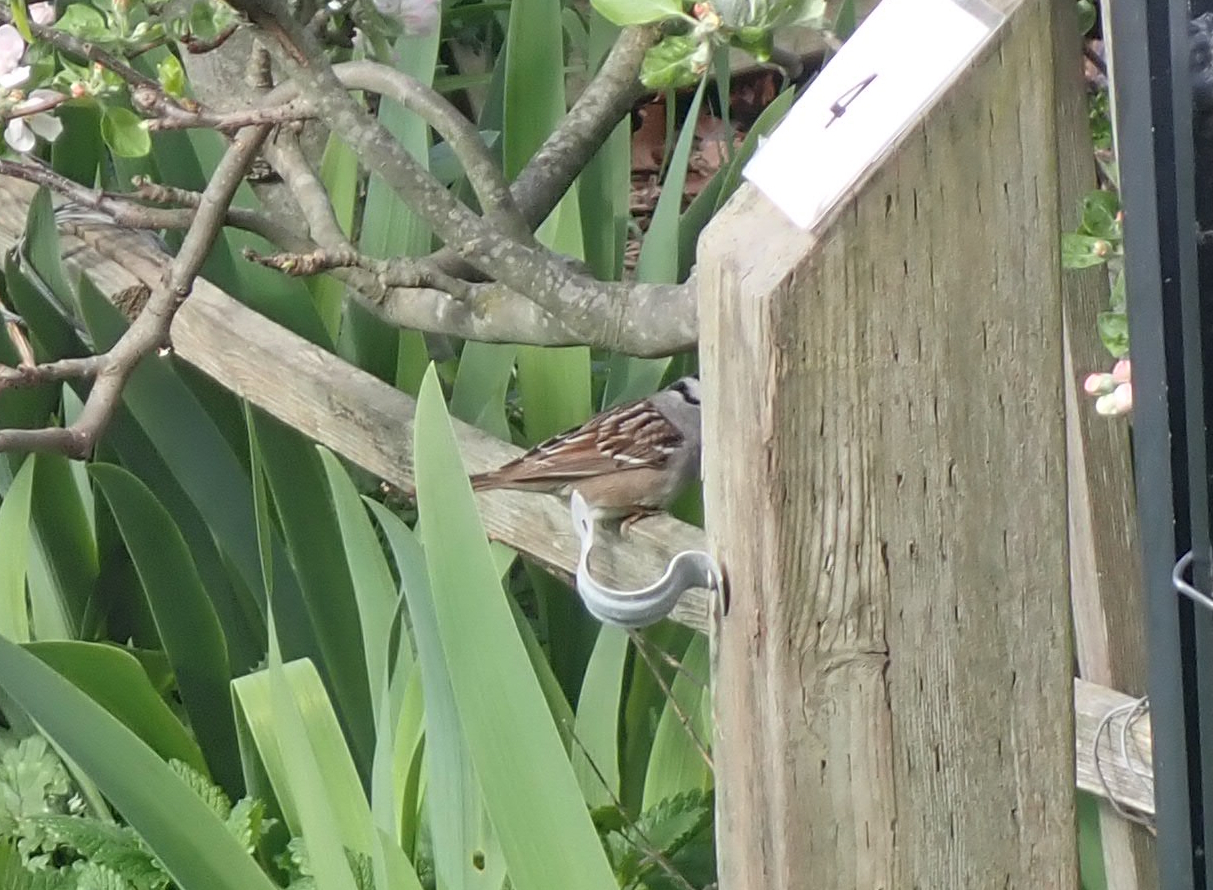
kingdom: Animalia
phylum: Chordata
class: Aves
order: Passeriformes
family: Passerellidae
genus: Zonotrichia
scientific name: Zonotrichia leucophrys
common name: White-crowned sparrow
